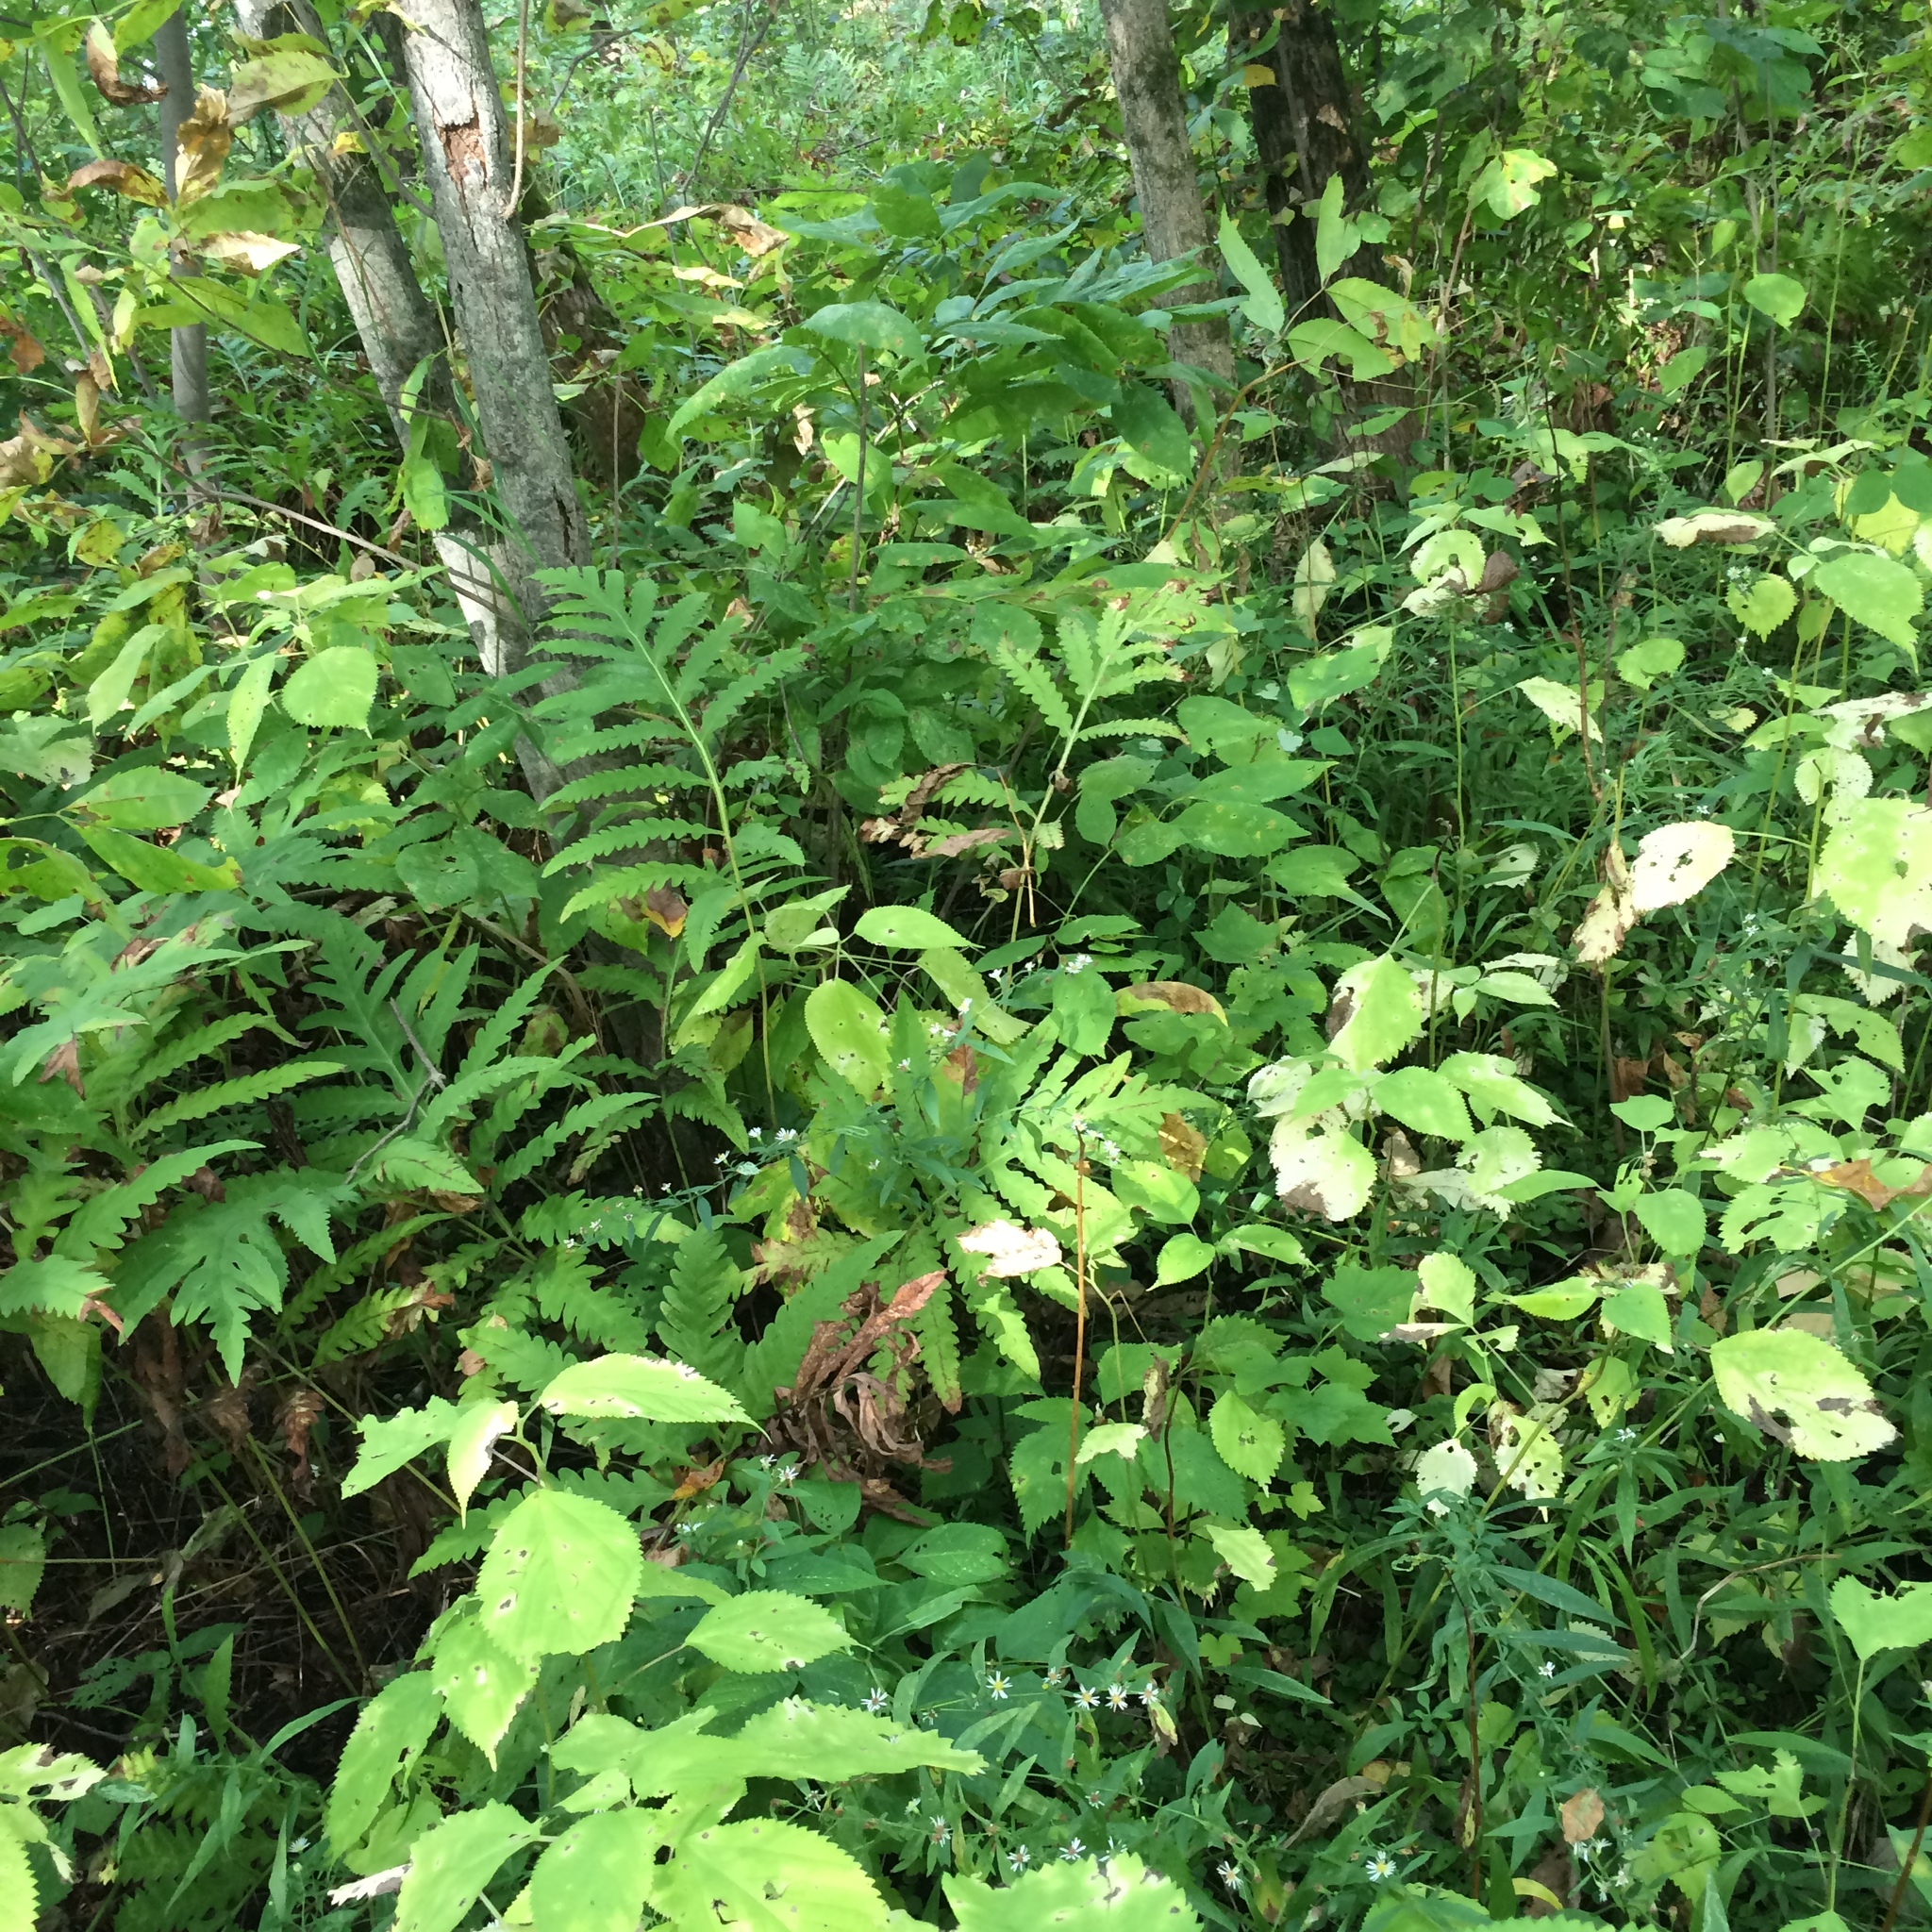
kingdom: Plantae
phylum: Tracheophyta
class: Magnoliopsida
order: Asterales
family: Asteraceae
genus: Symphyotrichum
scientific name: Symphyotrichum ontarionis
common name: Bottomland aster
